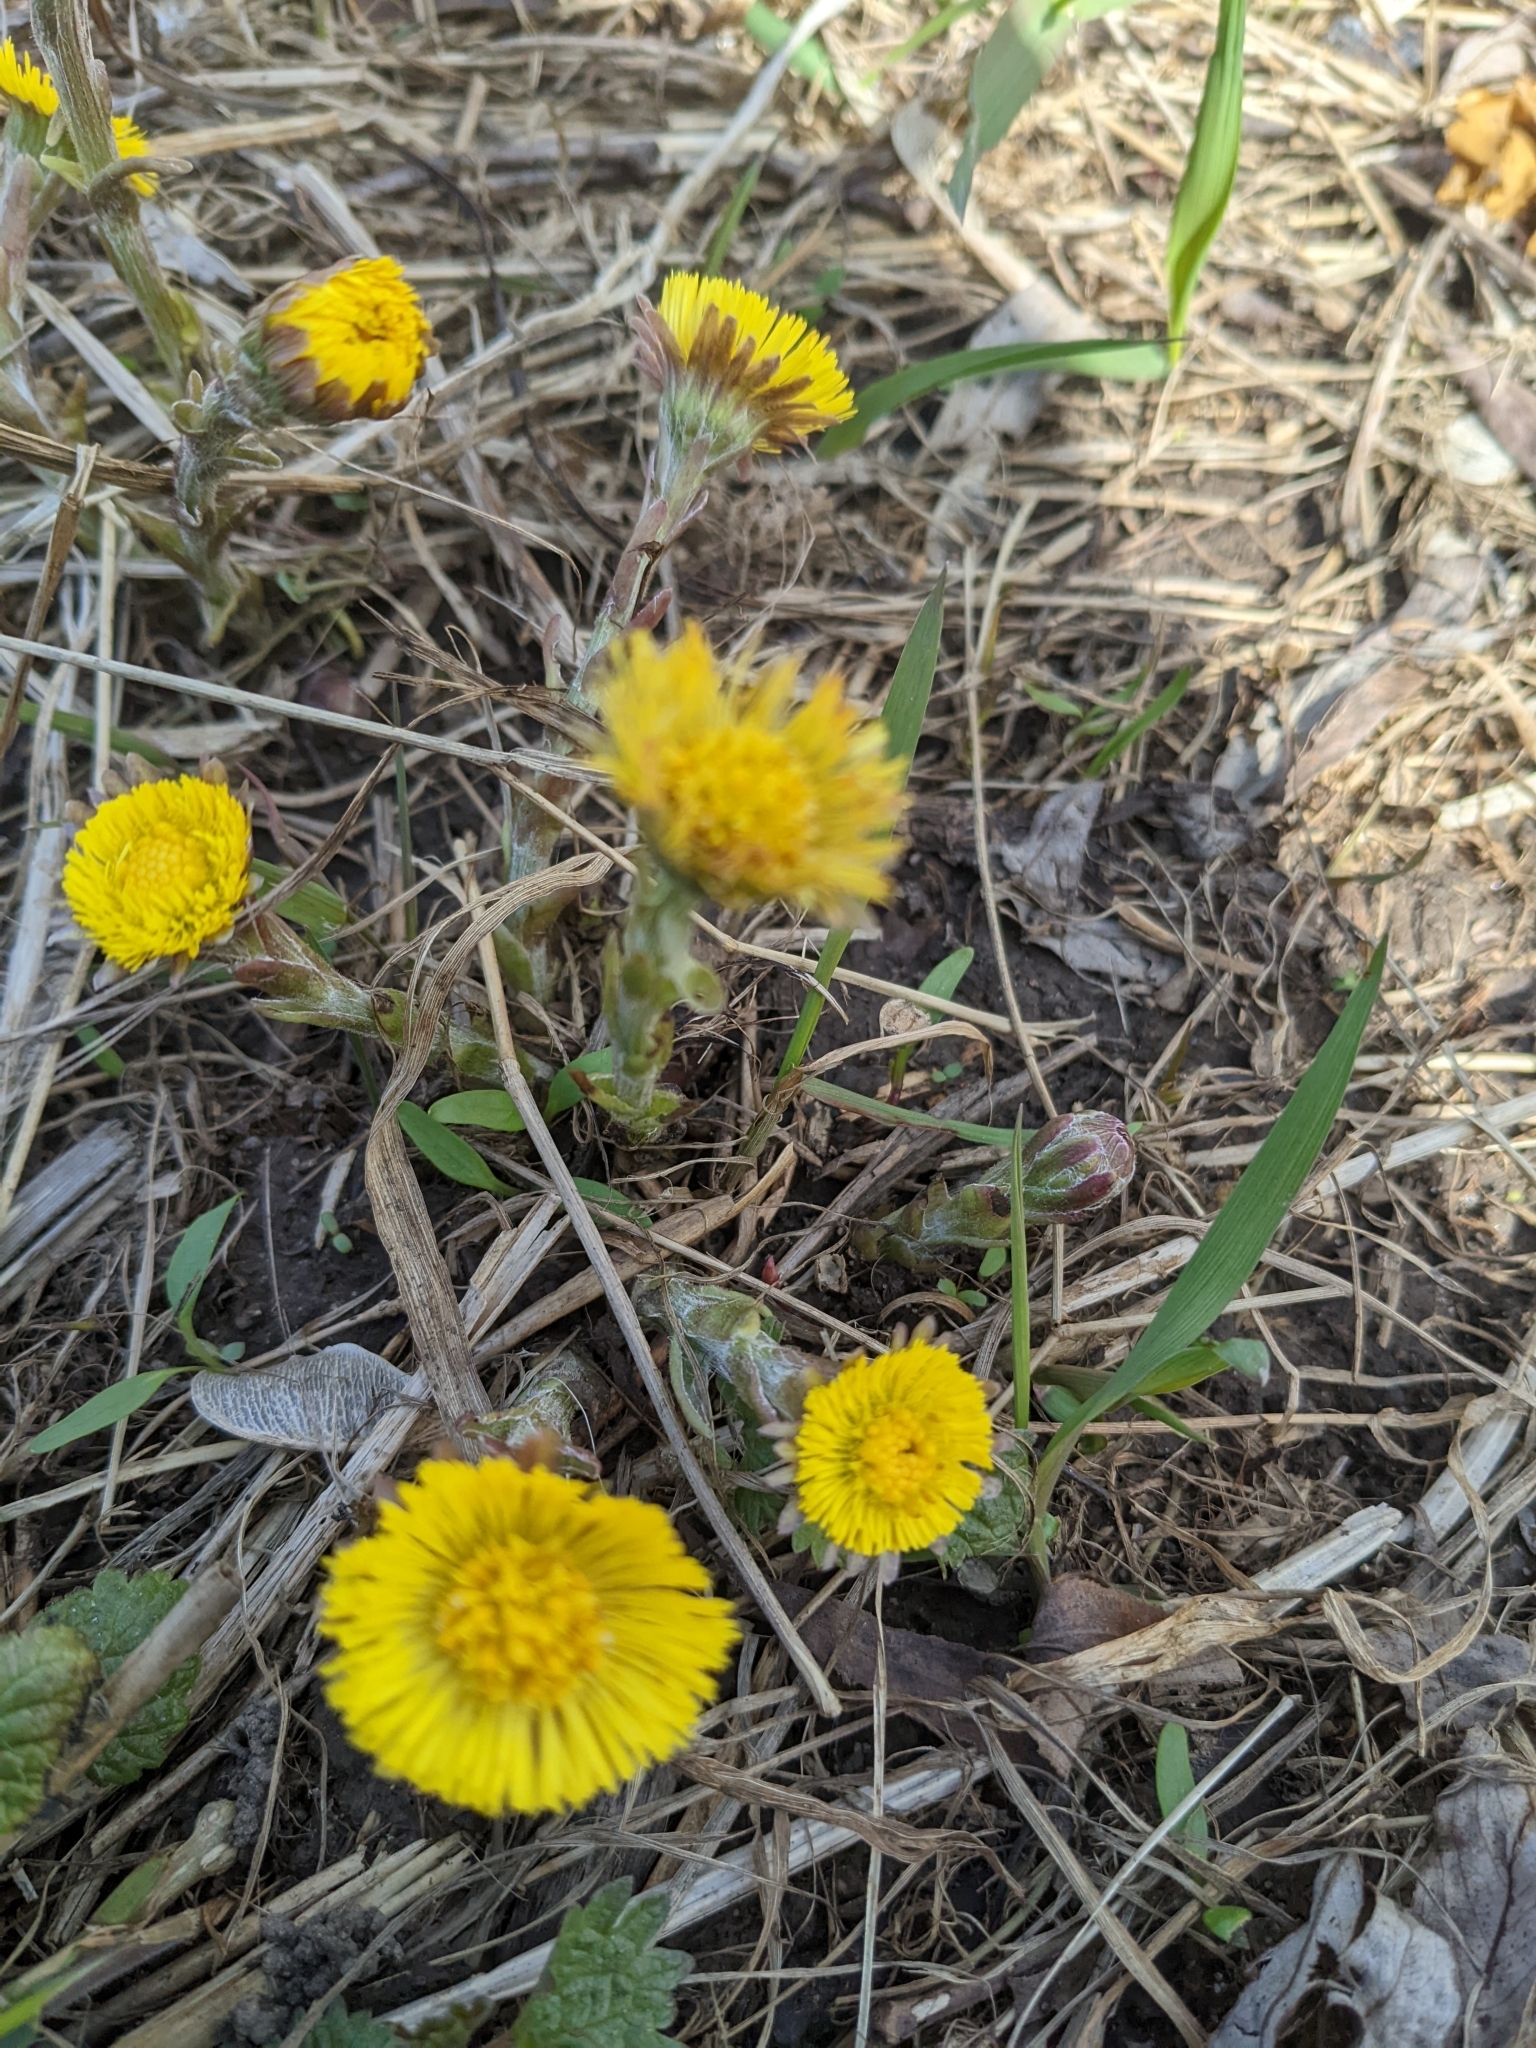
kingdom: Plantae
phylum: Tracheophyta
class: Magnoliopsida
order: Asterales
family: Asteraceae
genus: Tussilago
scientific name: Tussilago farfara
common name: Coltsfoot
